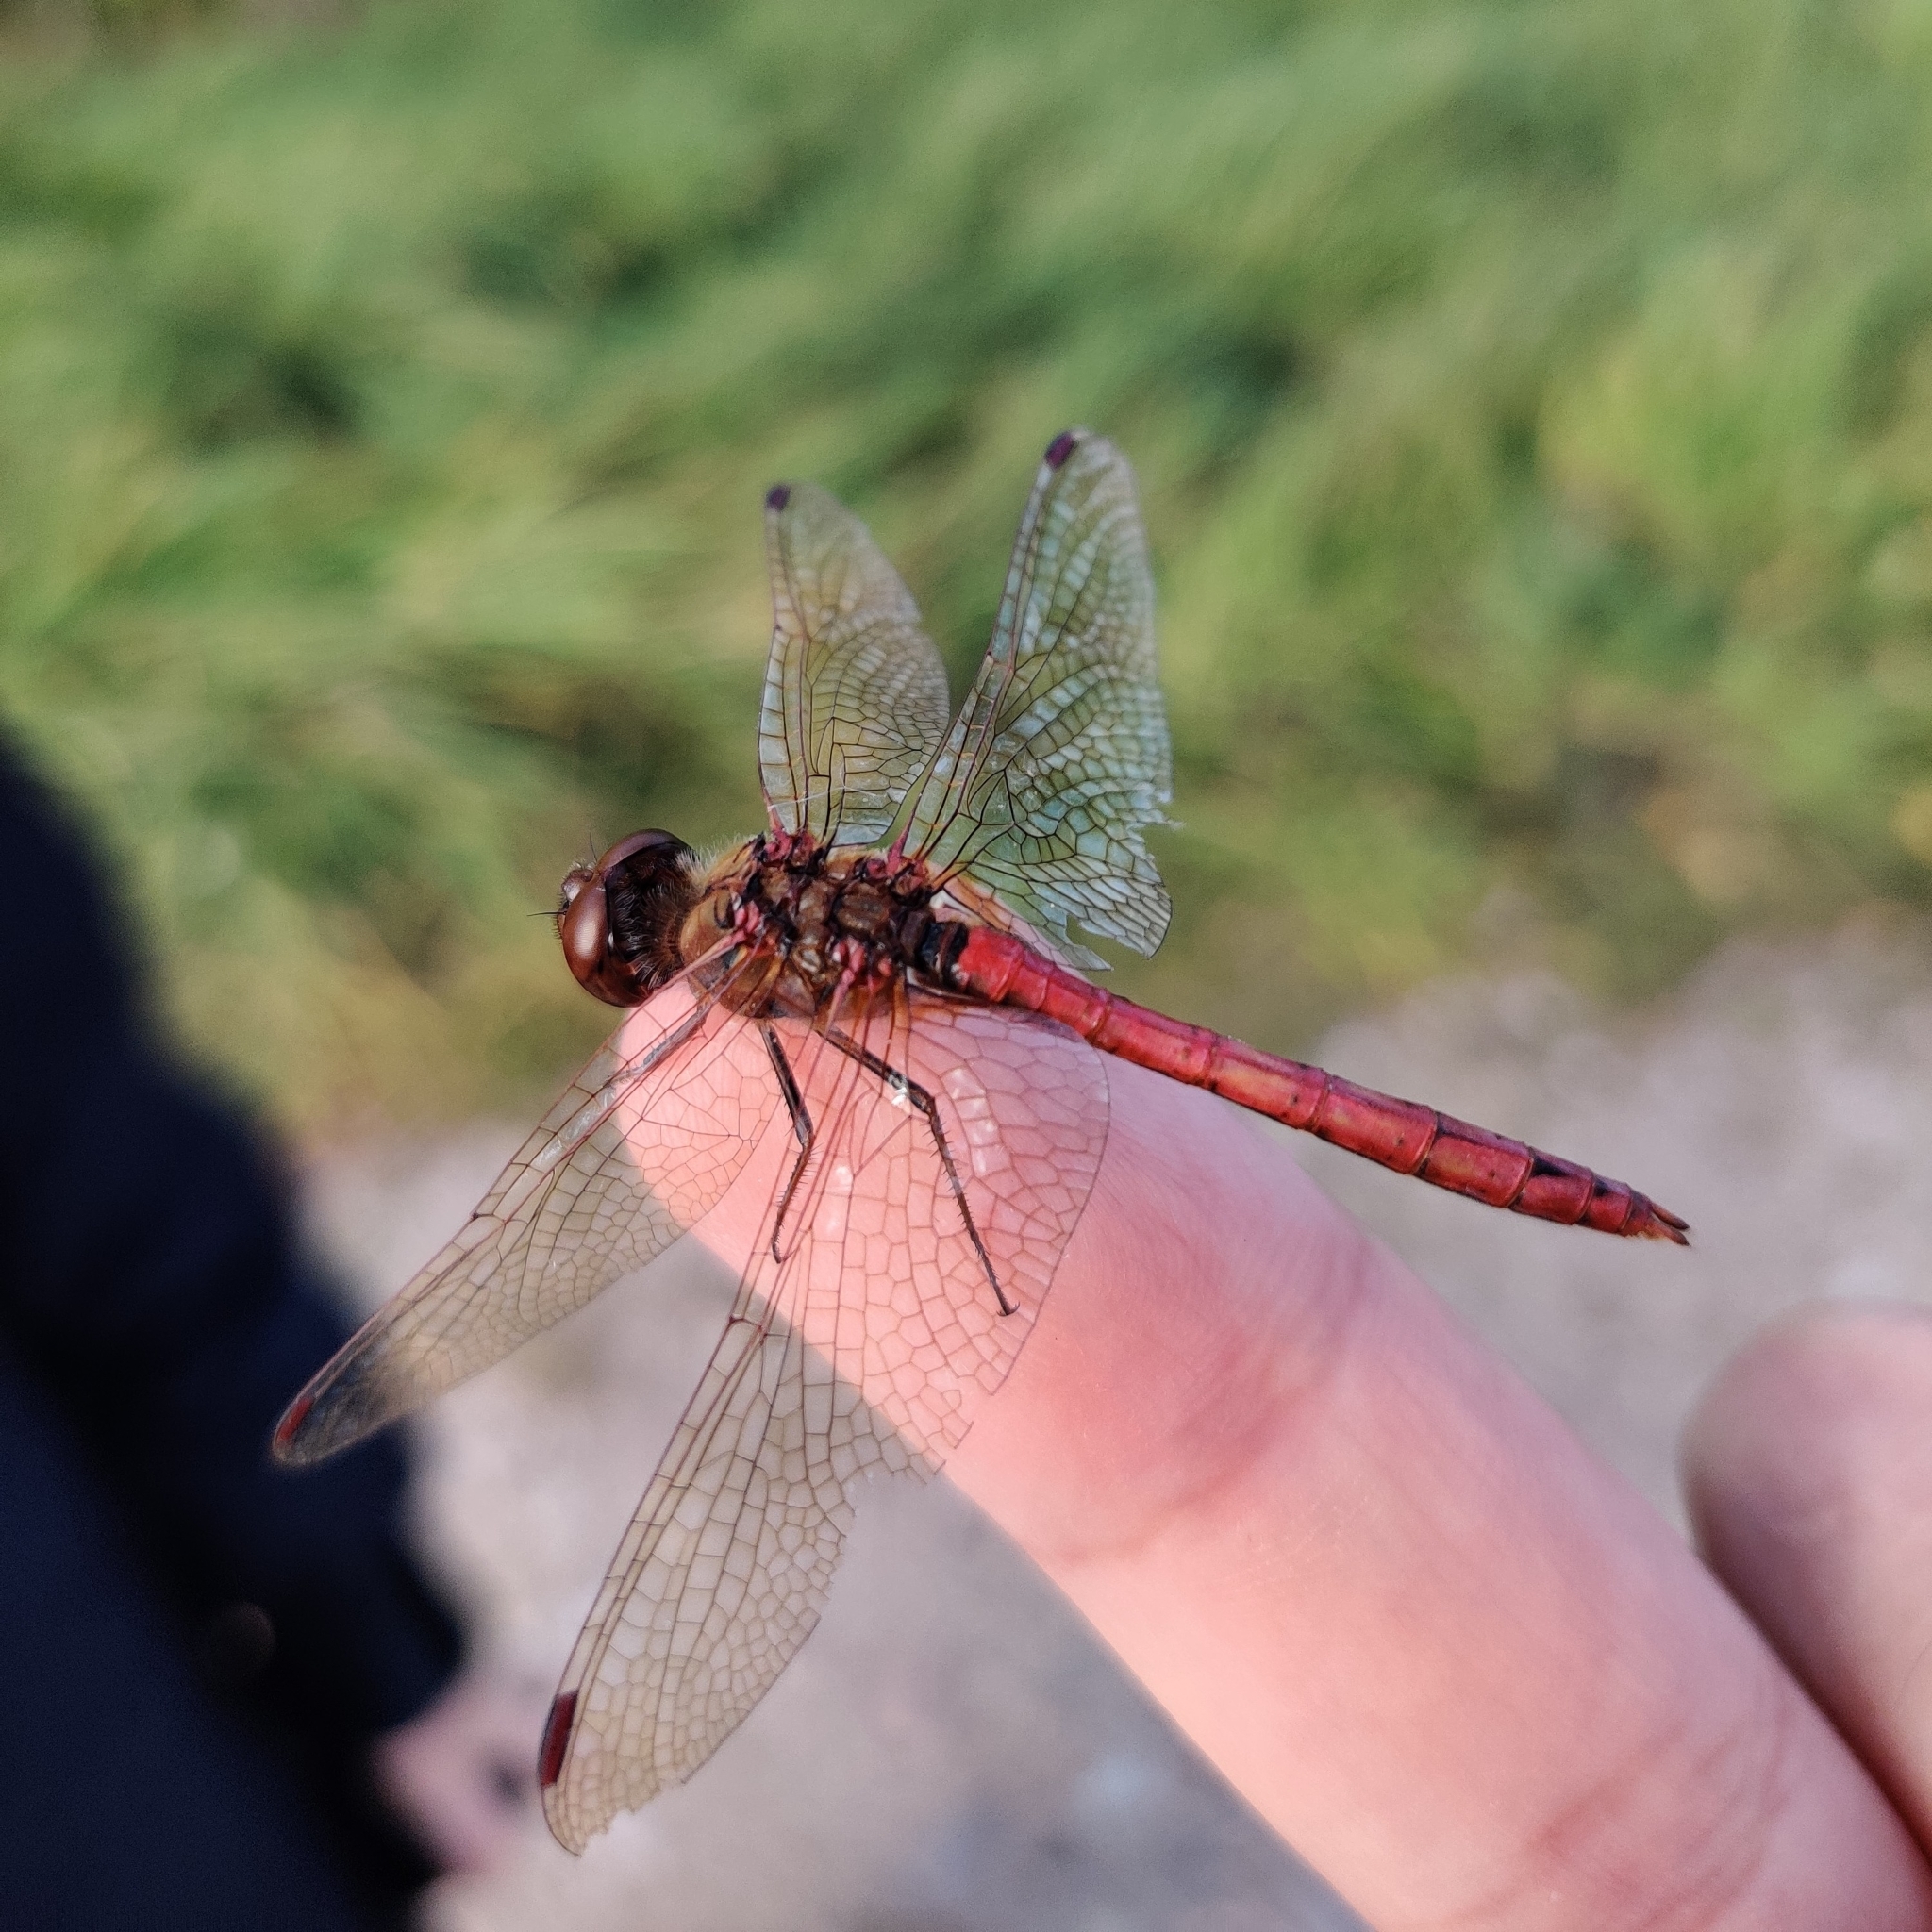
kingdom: Animalia
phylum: Arthropoda
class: Insecta
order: Odonata
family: Libellulidae
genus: Sympetrum
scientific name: Sympetrum vulgatum
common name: Vagrant darter
